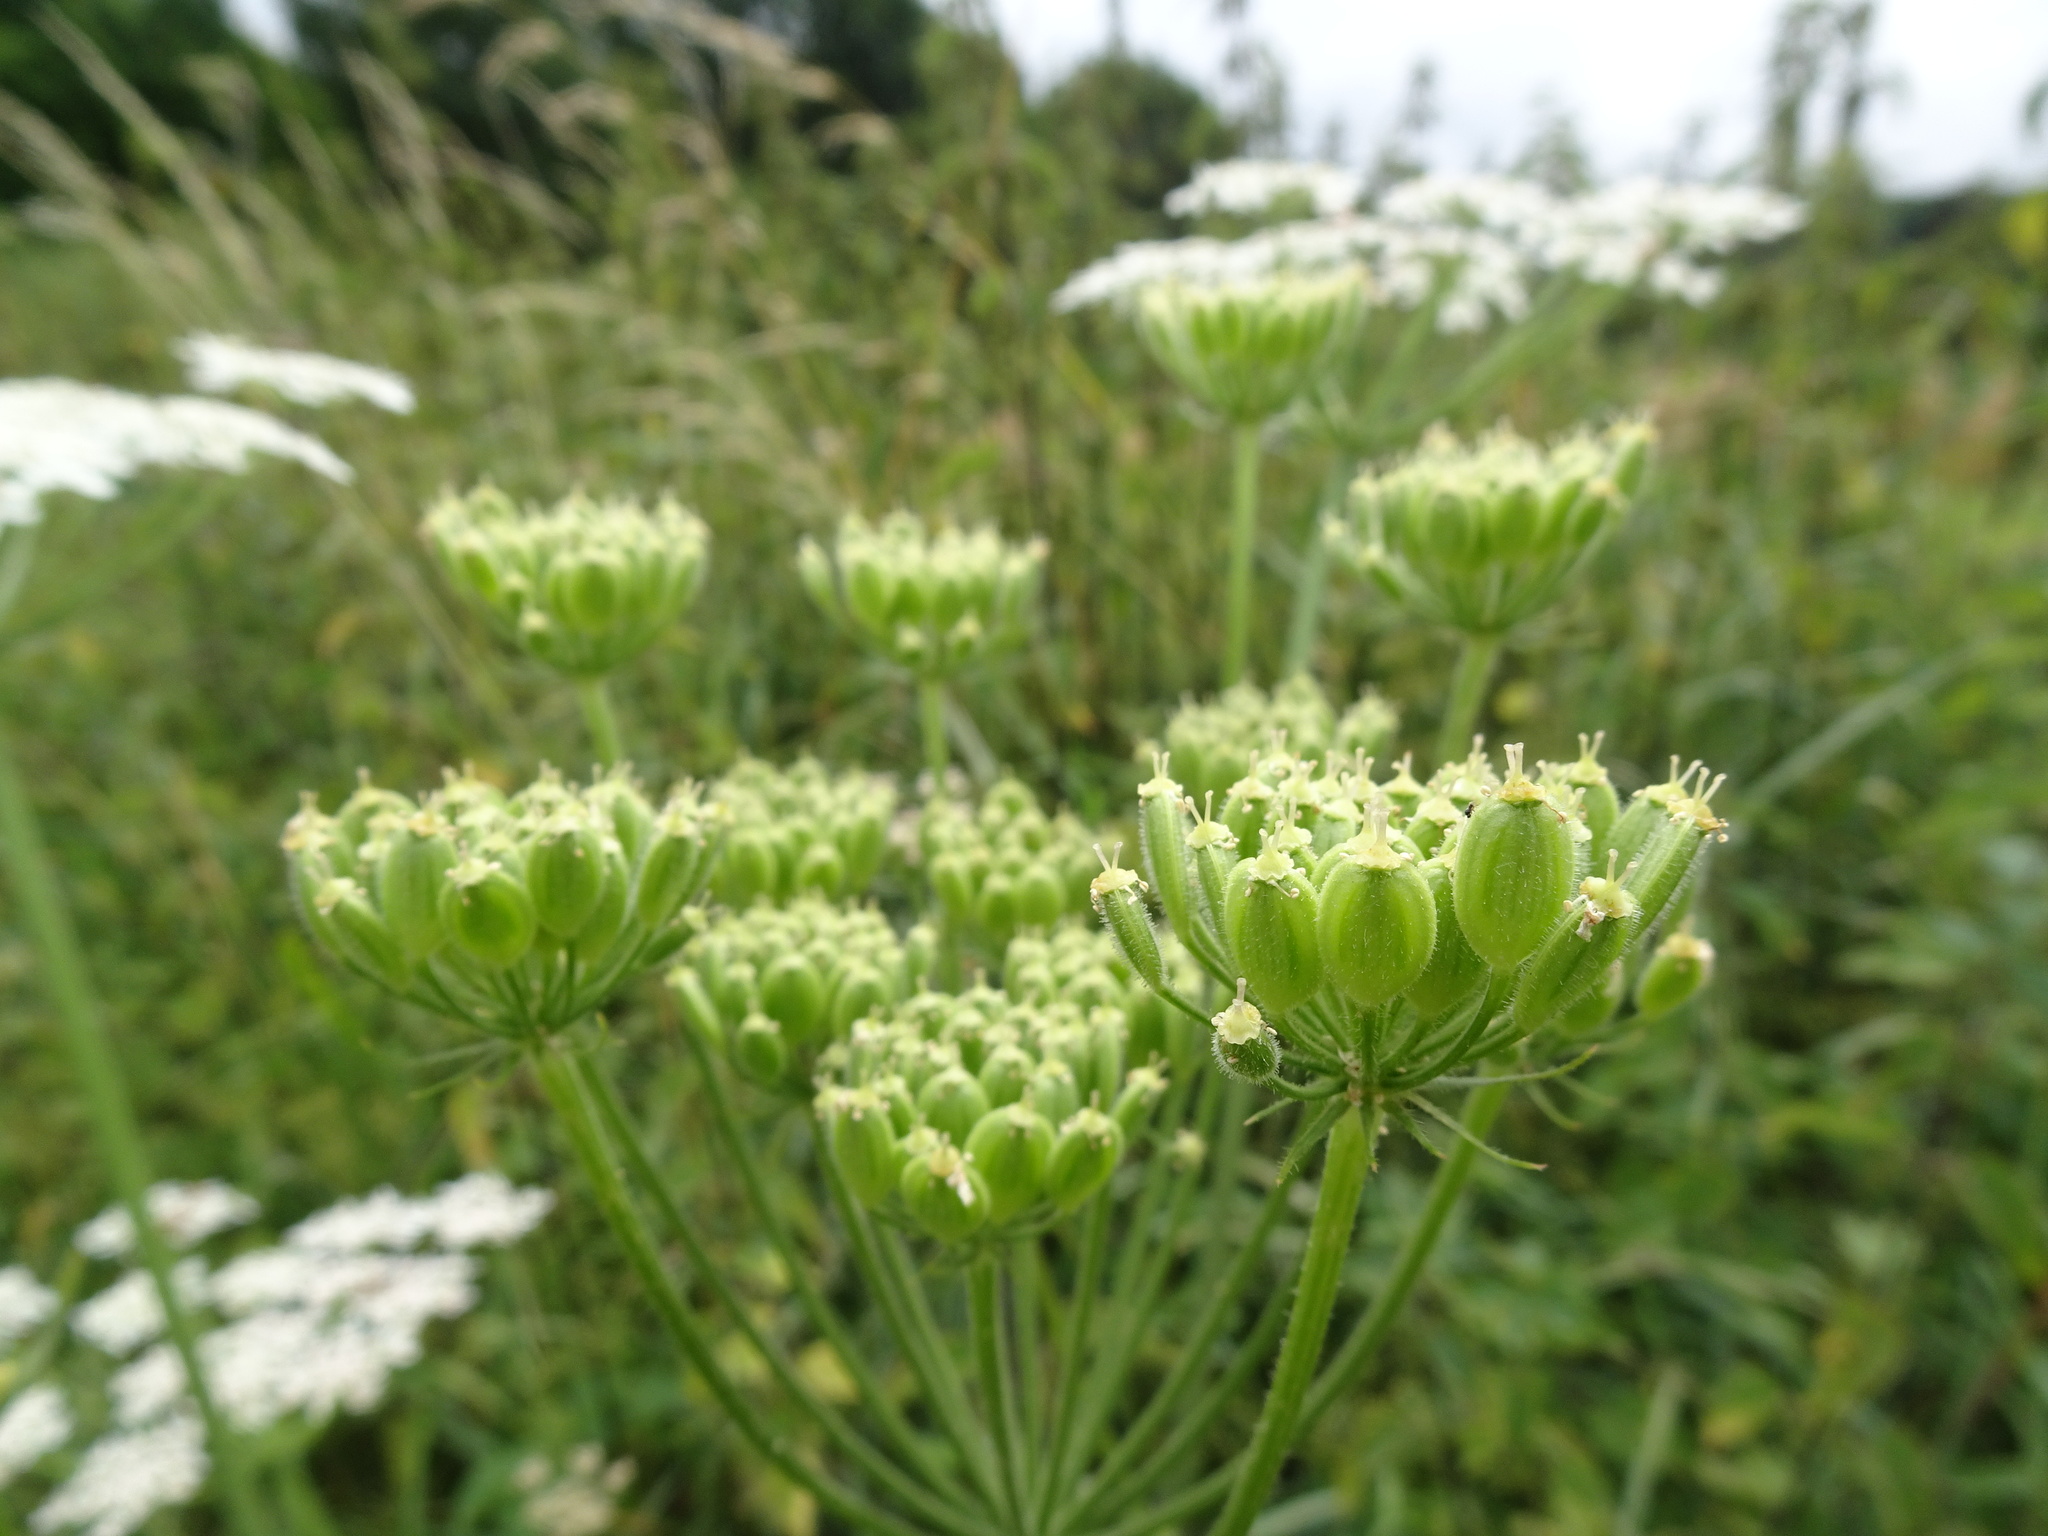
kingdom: Plantae
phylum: Tracheophyta
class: Magnoliopsida
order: Apiales
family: Apiaceae
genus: Heracleum
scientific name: Heracleum sphondylium
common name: Hogweed
